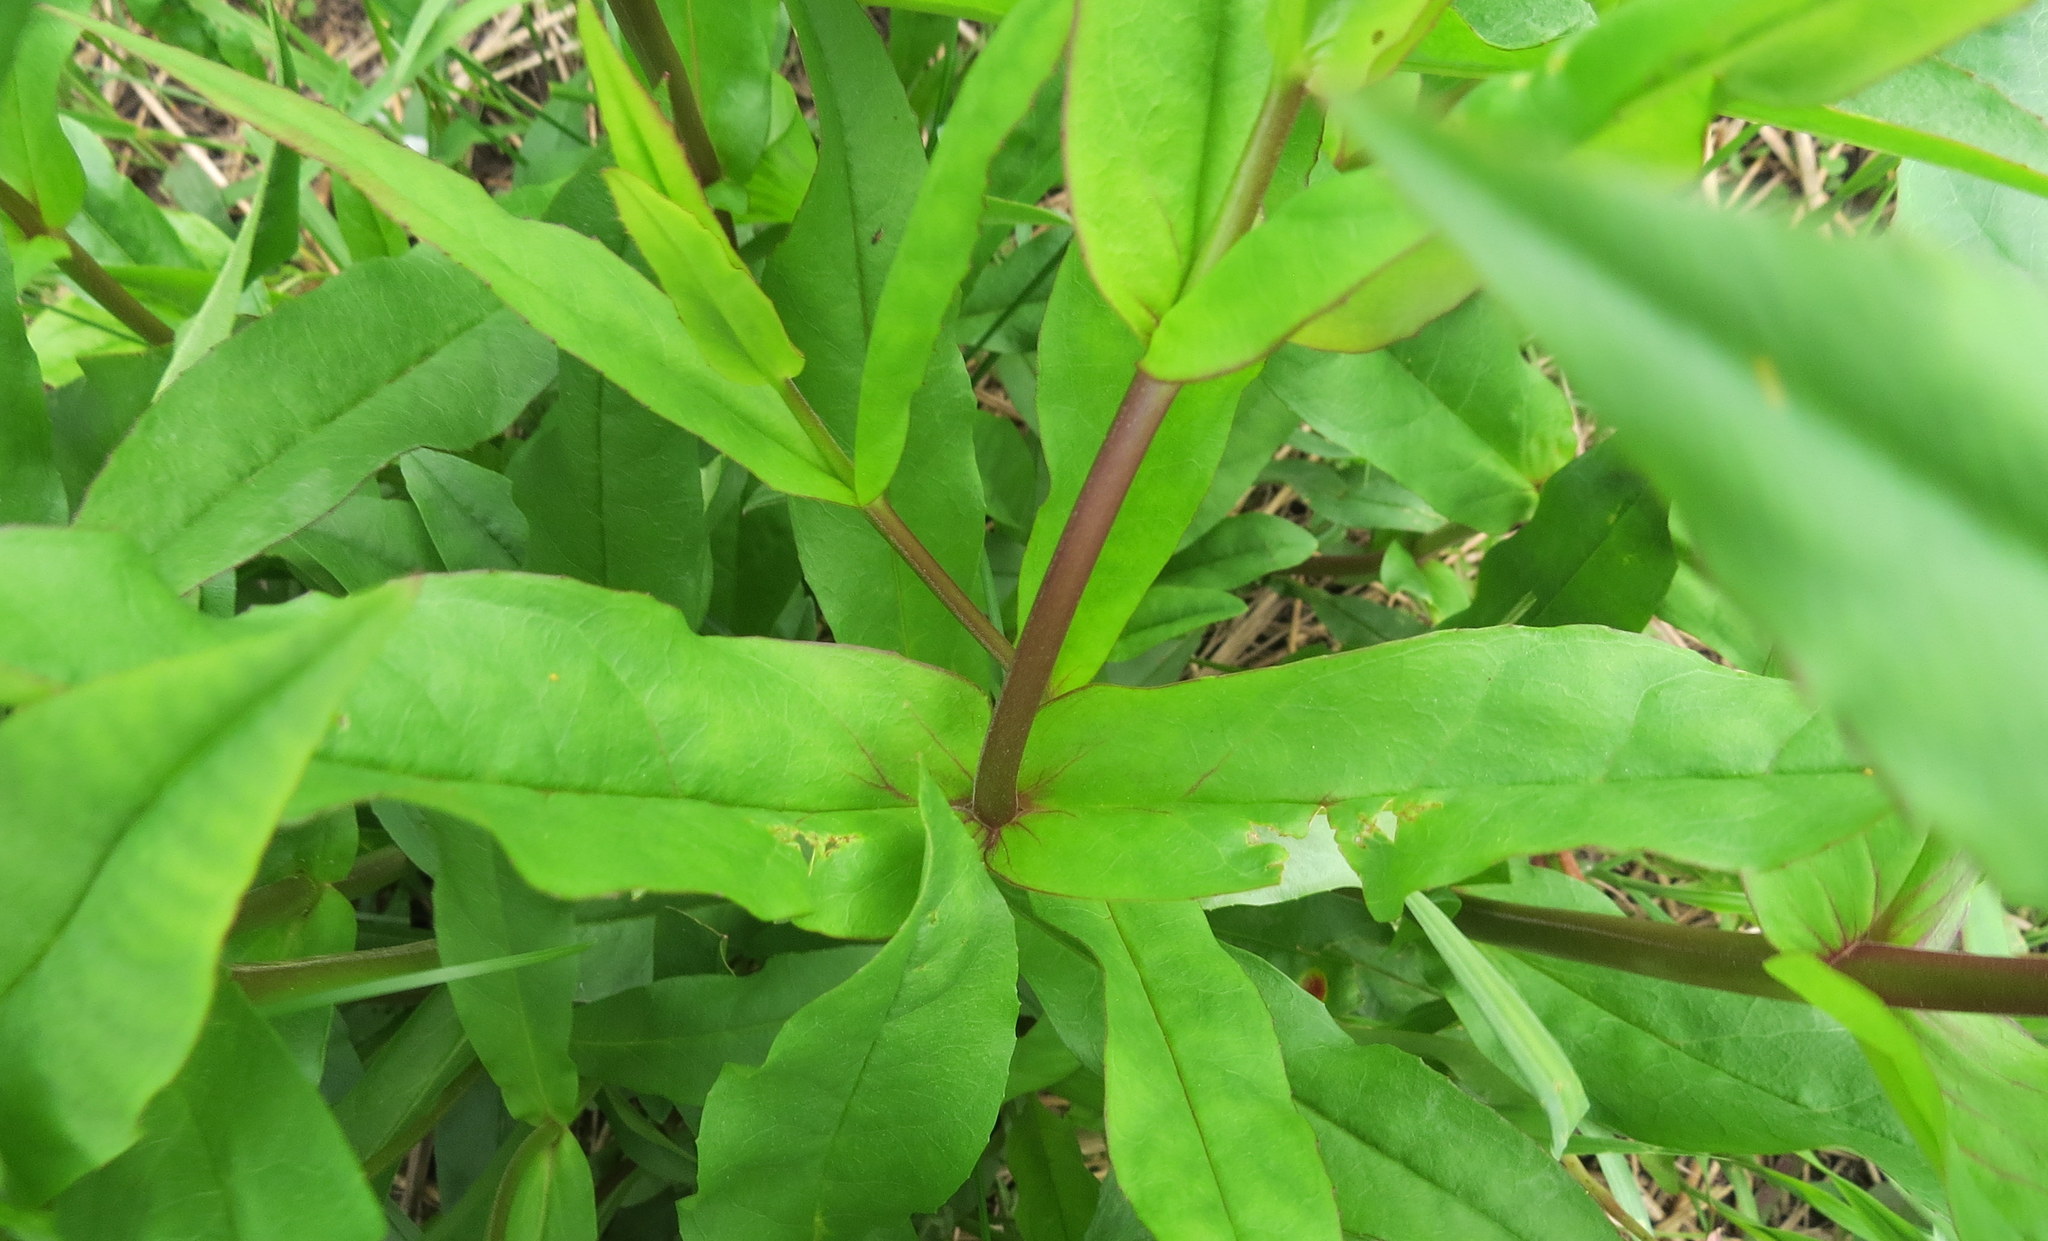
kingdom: Plantae
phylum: Tracheophyta
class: Magnoliopsida
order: Lamiales
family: Plantaginaceae
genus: Penstemon
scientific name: Penstemon digitalis
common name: Foxglove beardtongue
